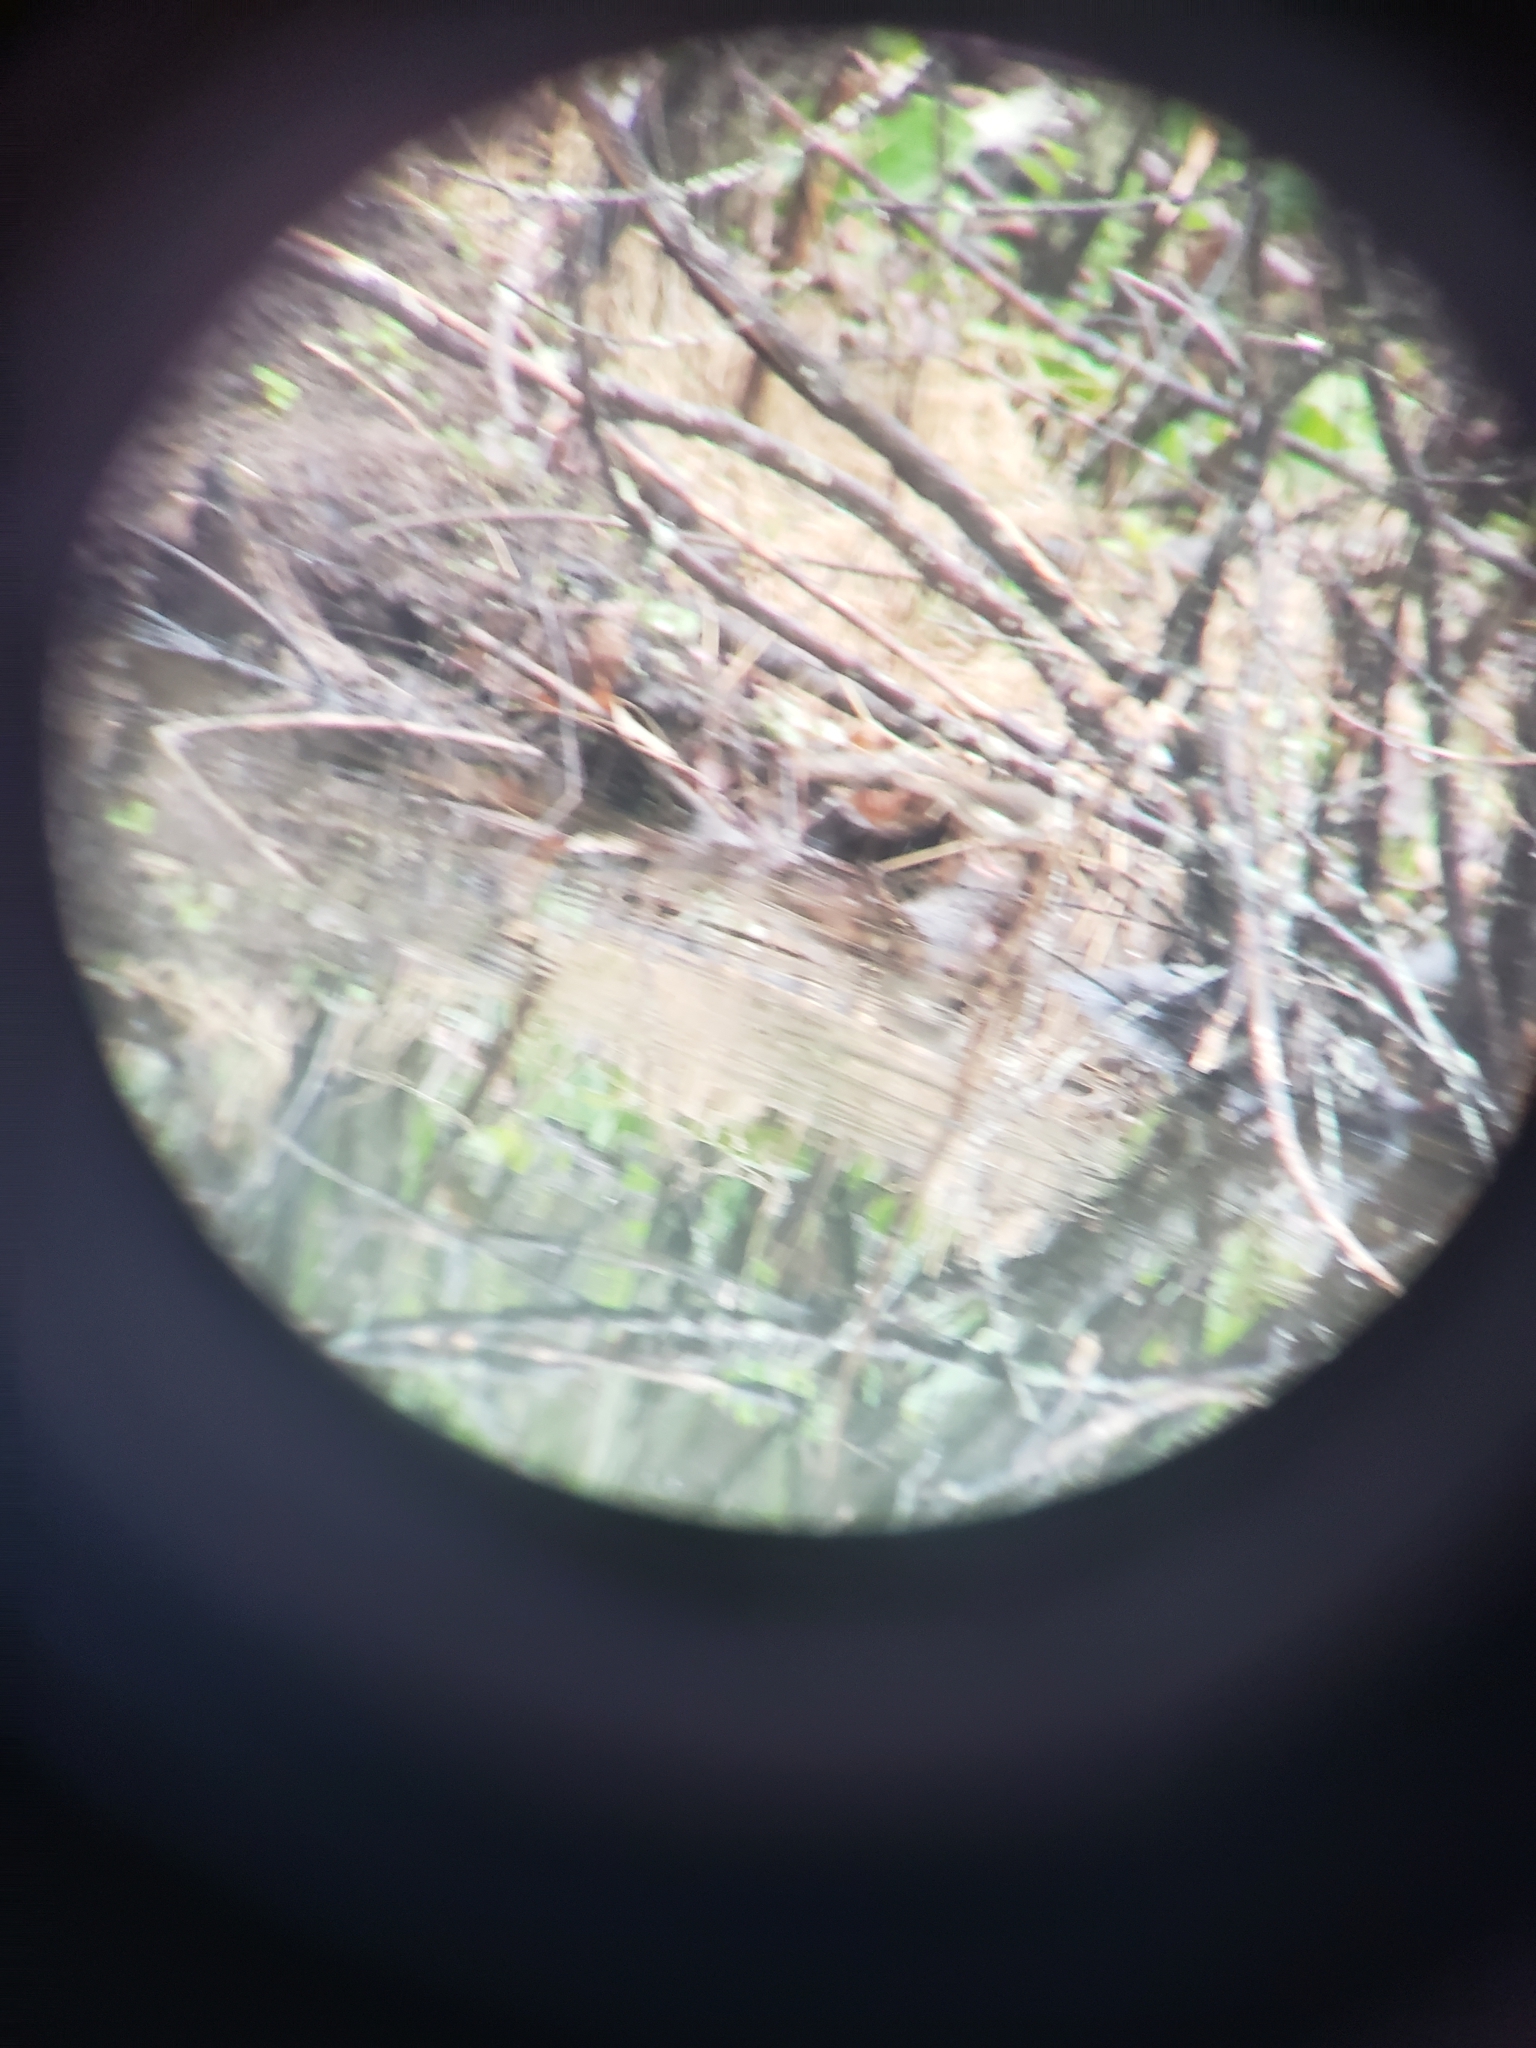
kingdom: Animalia
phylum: Chordata
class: Aves
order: Passeriformes
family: Parulidae
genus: Parkesia
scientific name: Parkesia motacilla
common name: Louisiana waterthrush
